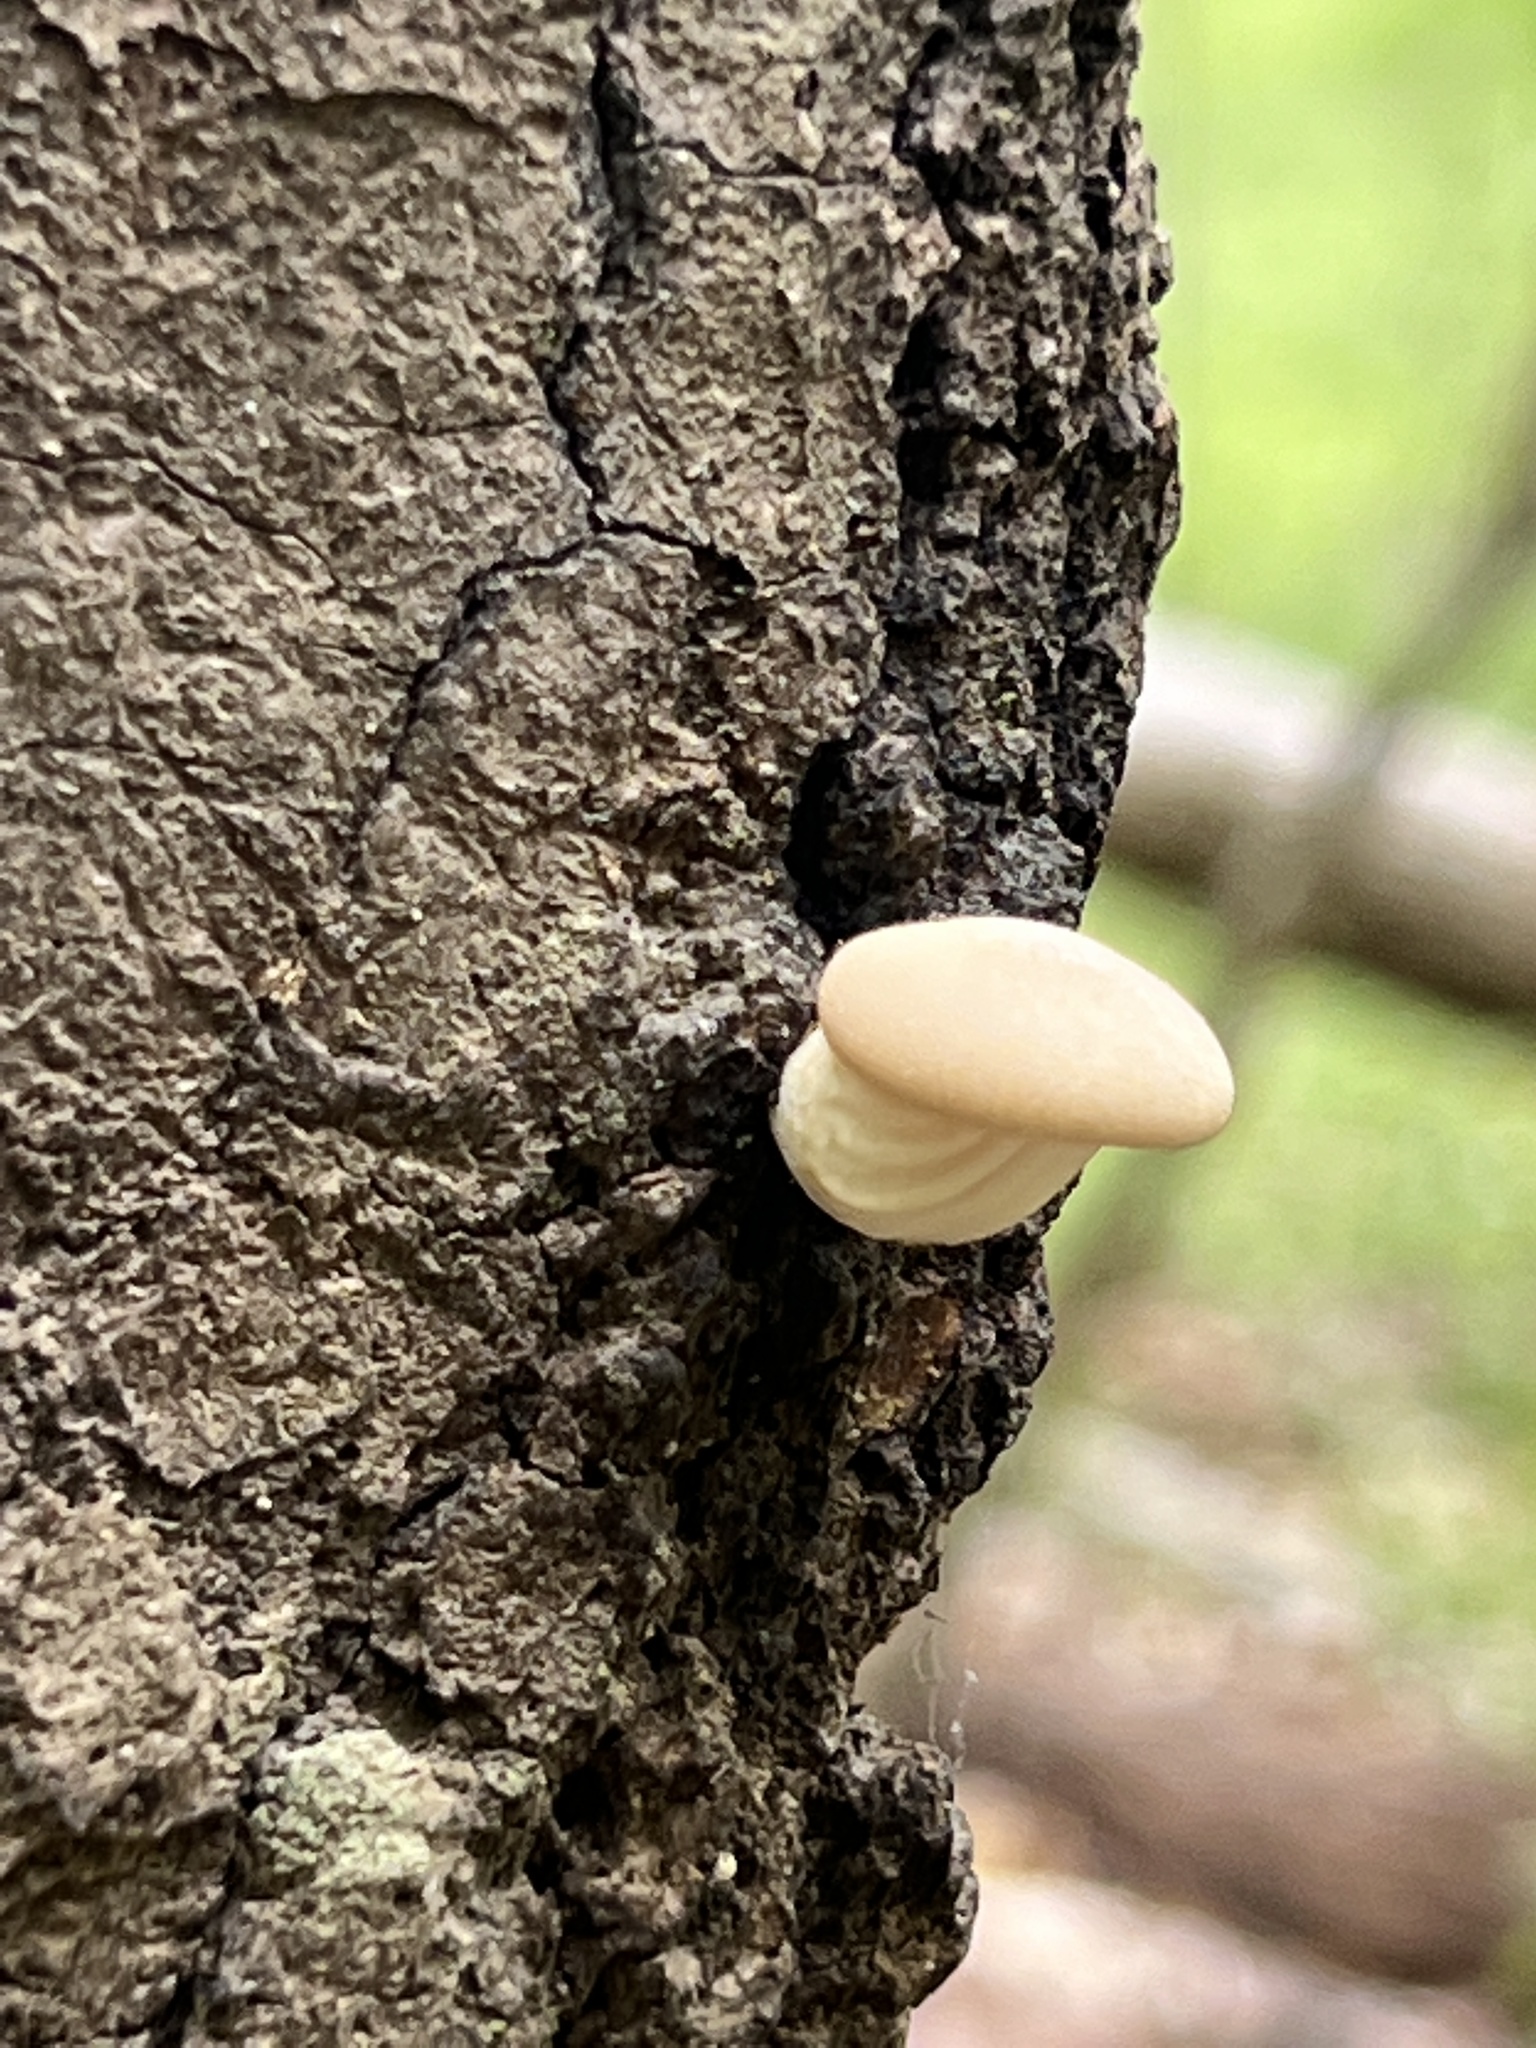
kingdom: Fungi
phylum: Basidiomycota
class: Agaricomycetes
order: Agaricales
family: Pleurotaceae
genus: Pleurotus
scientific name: Pleurotus populinus
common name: Aspen oyster mushroom
